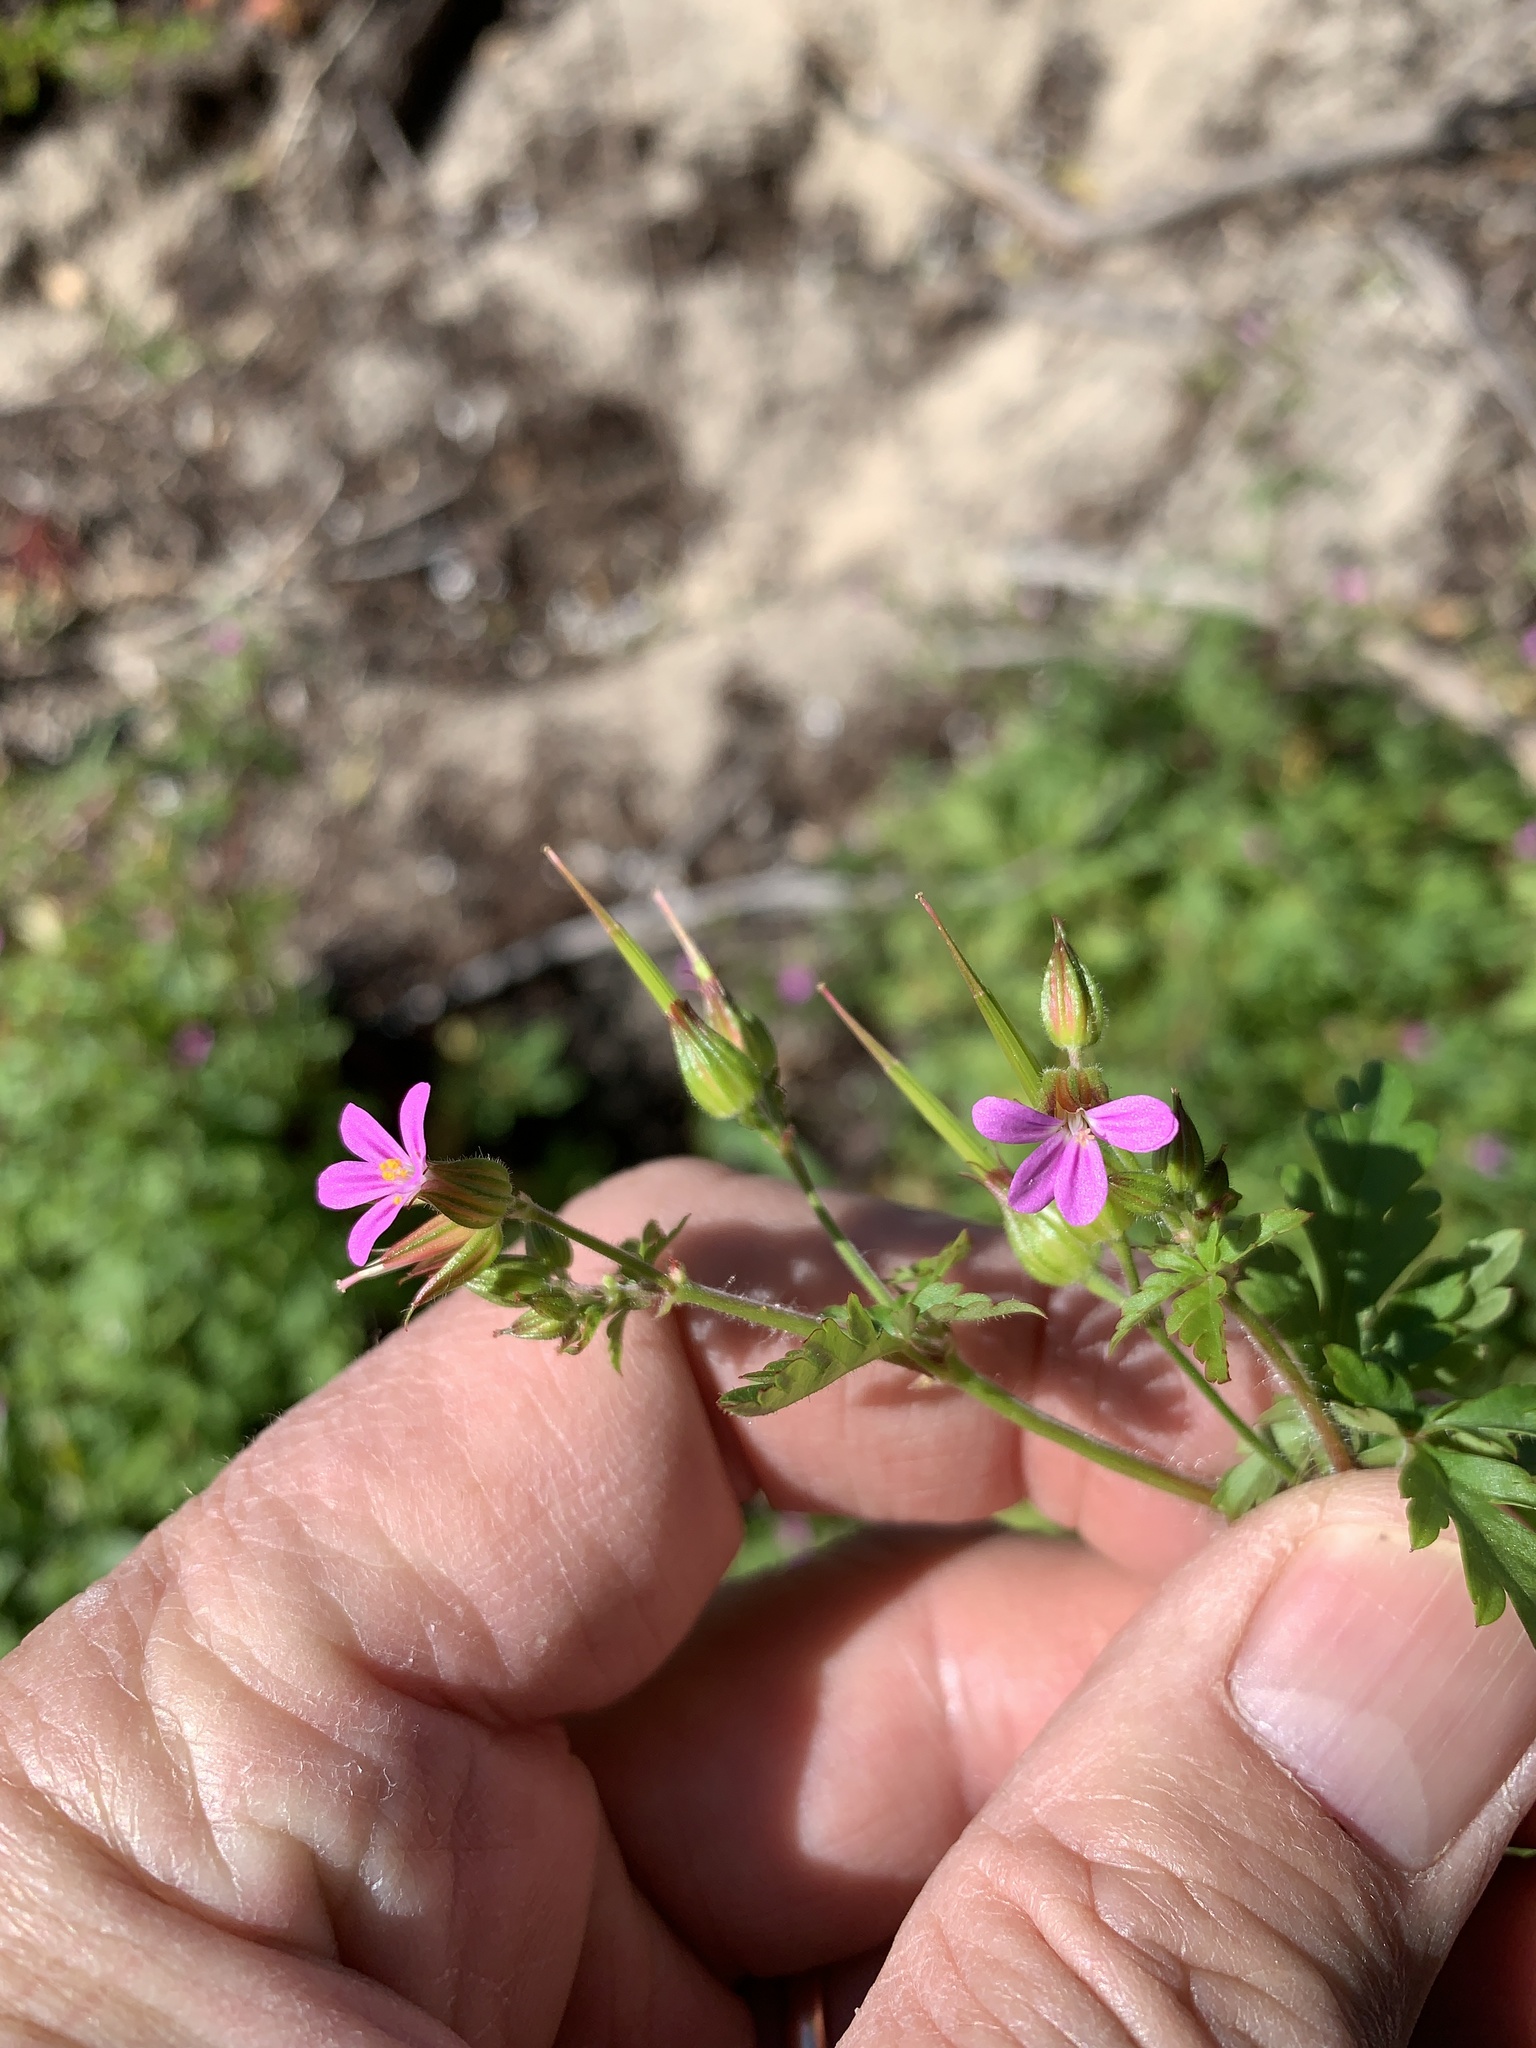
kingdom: Plantae
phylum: Tracheophyta
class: Magnoliopsida
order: Geraniales
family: Geraniaceae
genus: Geranium
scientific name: Geranium purpureum
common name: Little-robin
